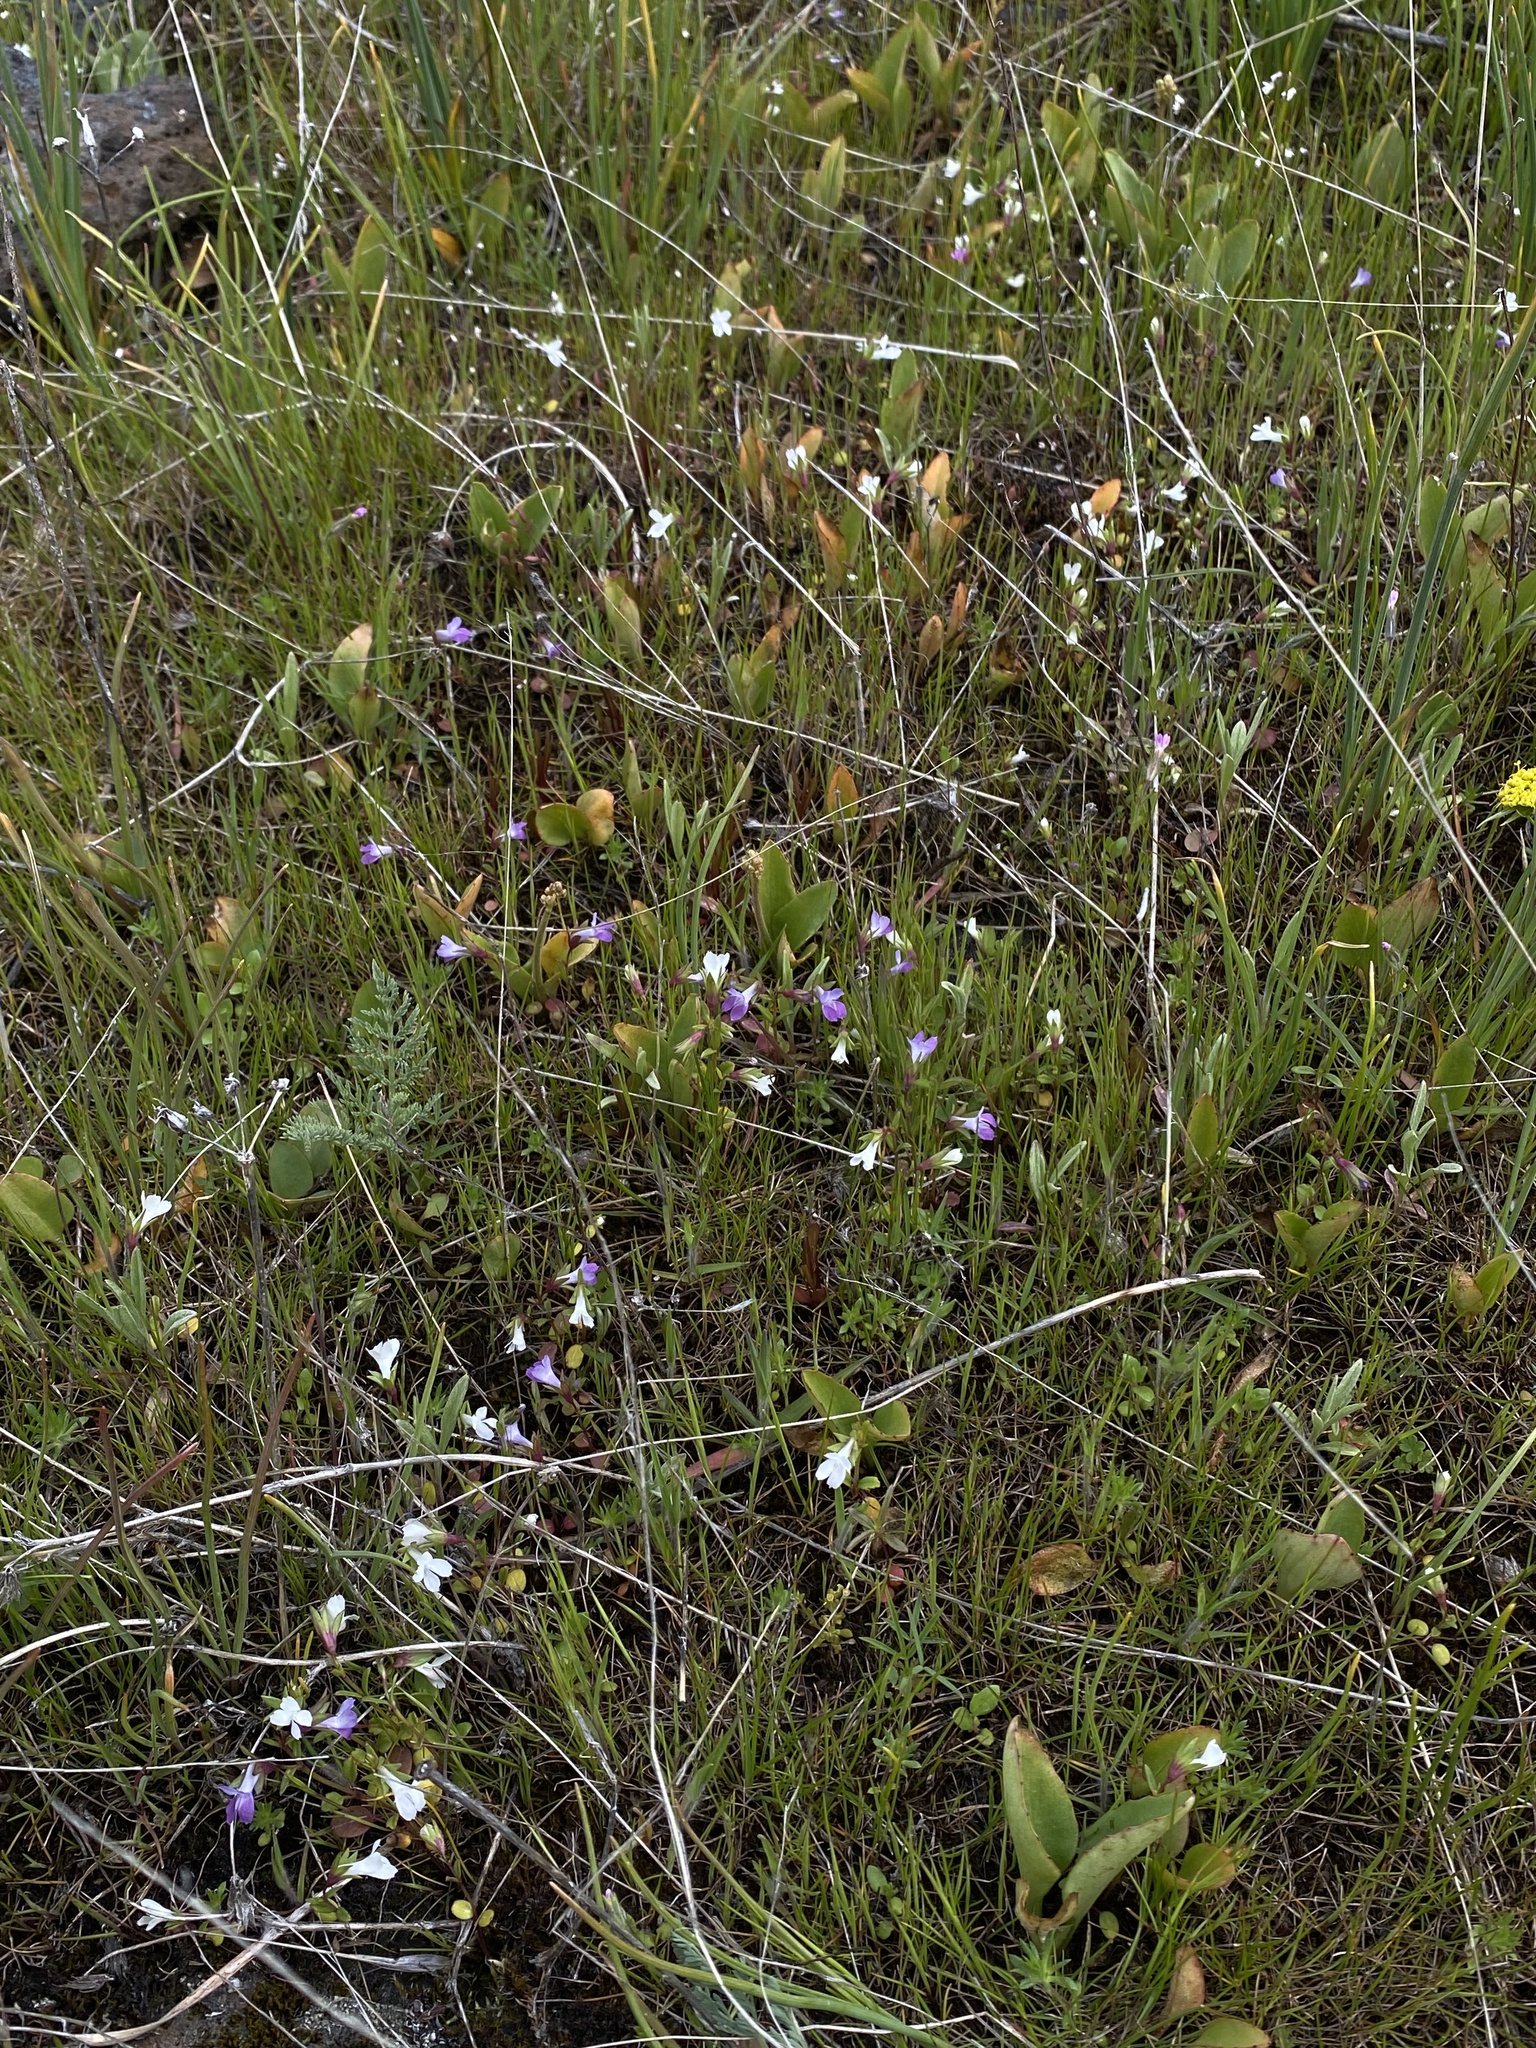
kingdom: Plantae
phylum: Tracheophyta
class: Magnoliopsida
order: Lamiales
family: Plantaginaceae
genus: Collinsia
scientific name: Collinsia sparsiflora
